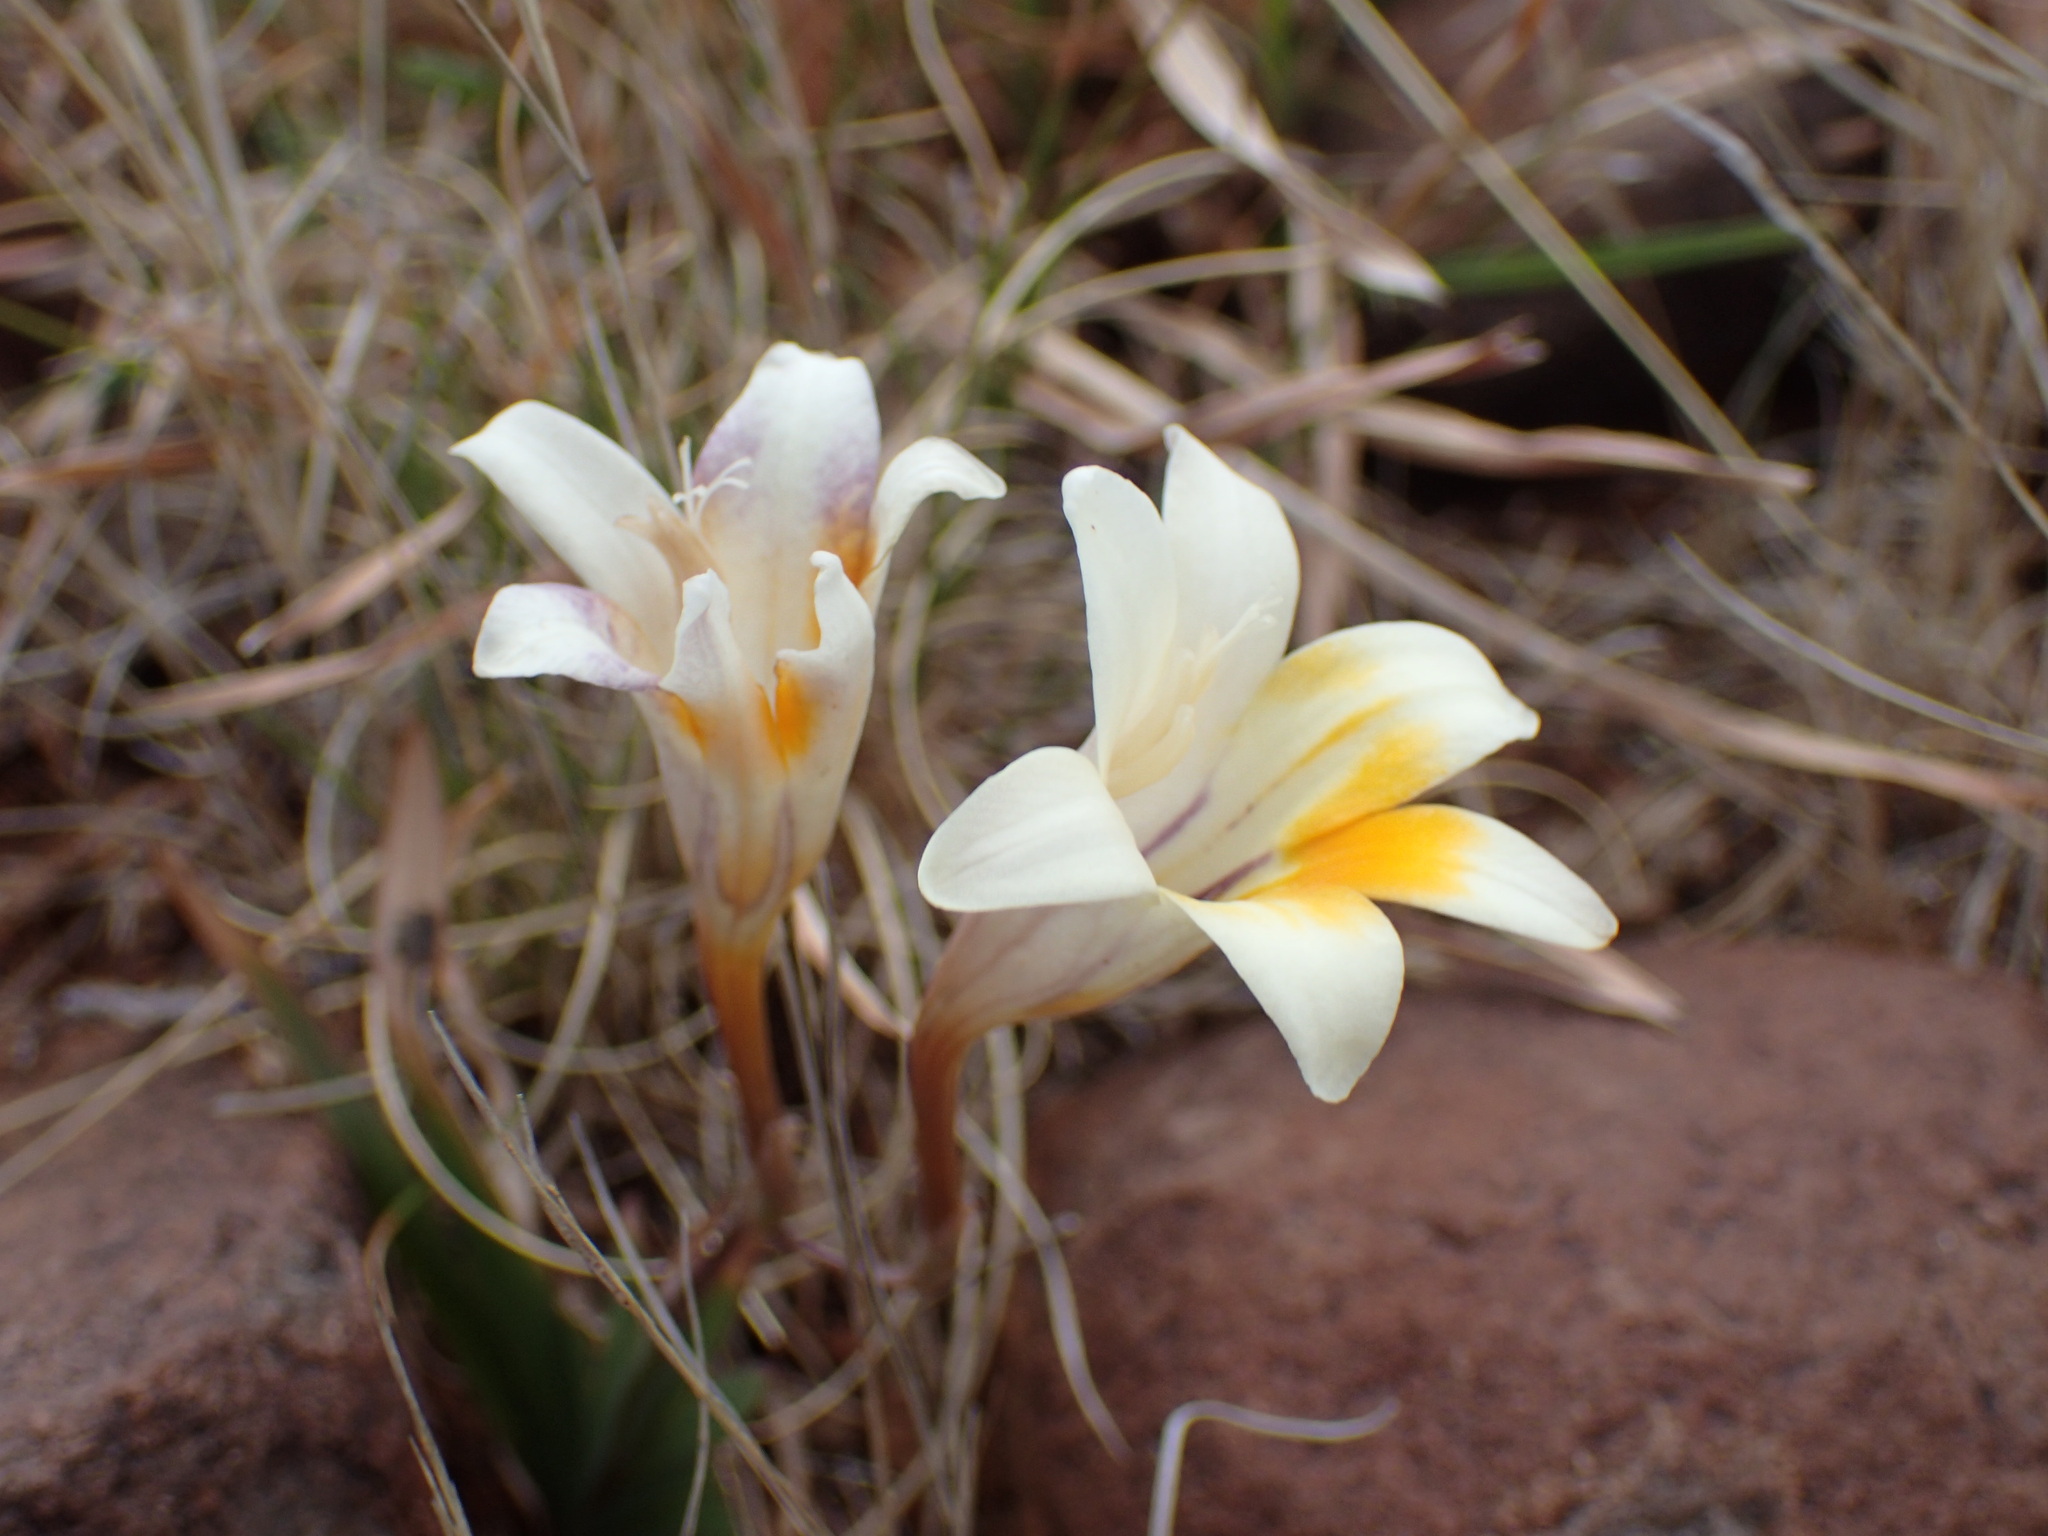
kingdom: Plantae
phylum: Tracheophyta
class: Liliopsida
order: Asparagales
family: Iridaceae
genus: Freesia
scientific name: Freesia andersoniae
